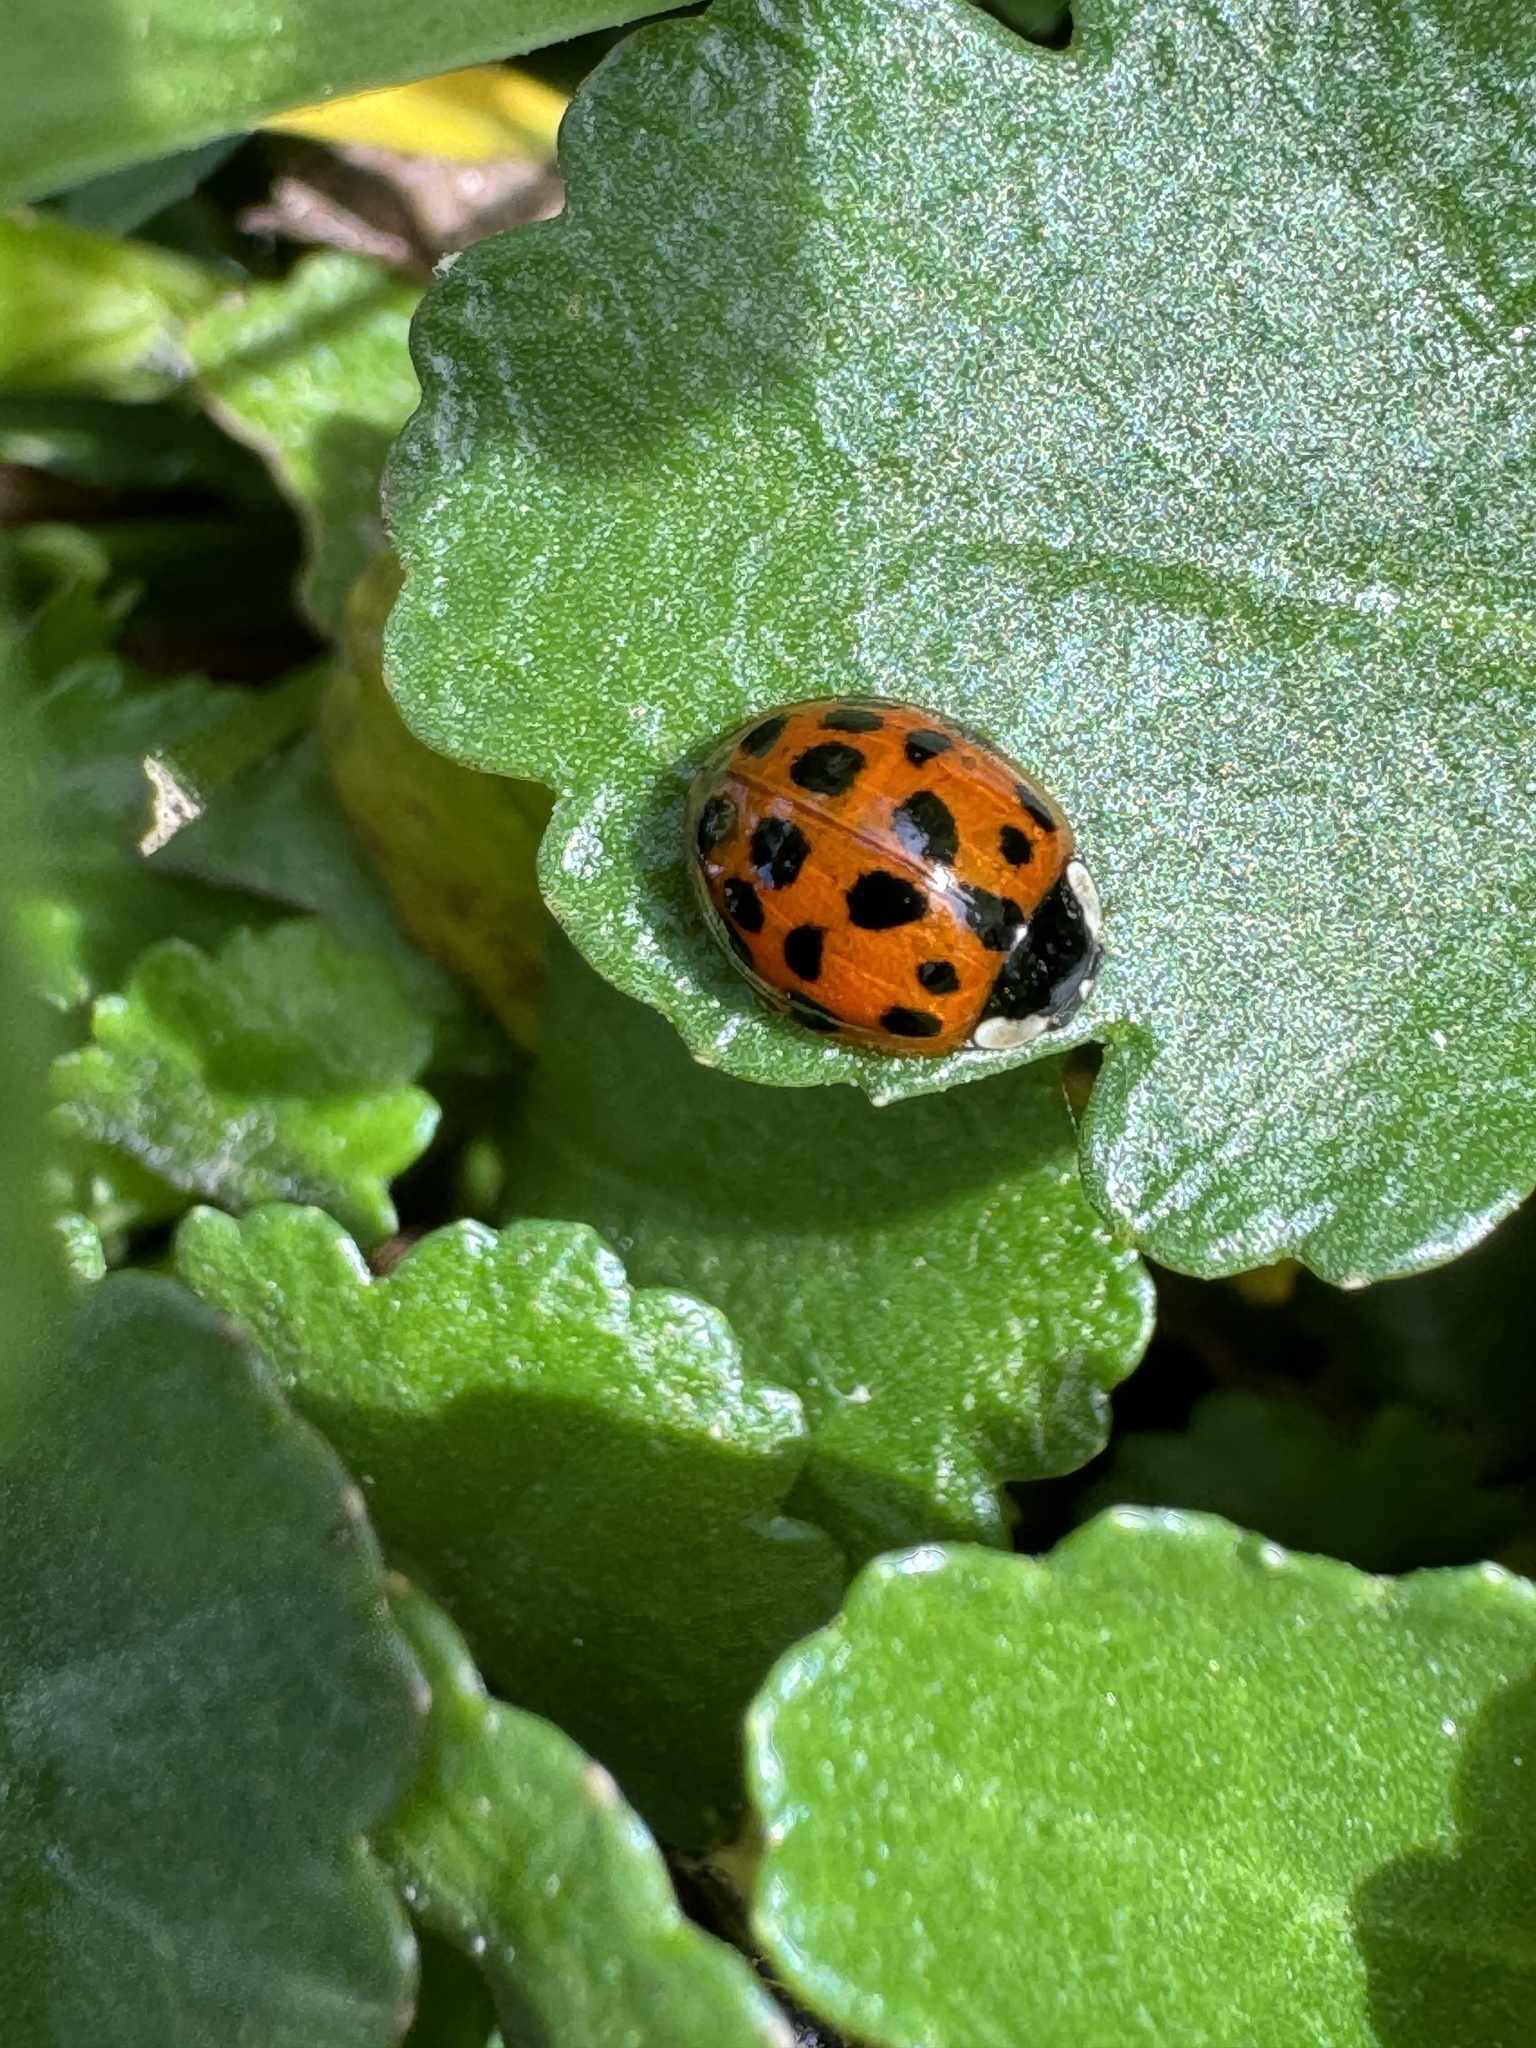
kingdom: Animalia
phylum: Arthropoda
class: Insecta
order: Coleoptera
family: Coccinellidae
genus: Harmonia
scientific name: Harmonia axyridis
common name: Harlequin ladybird
